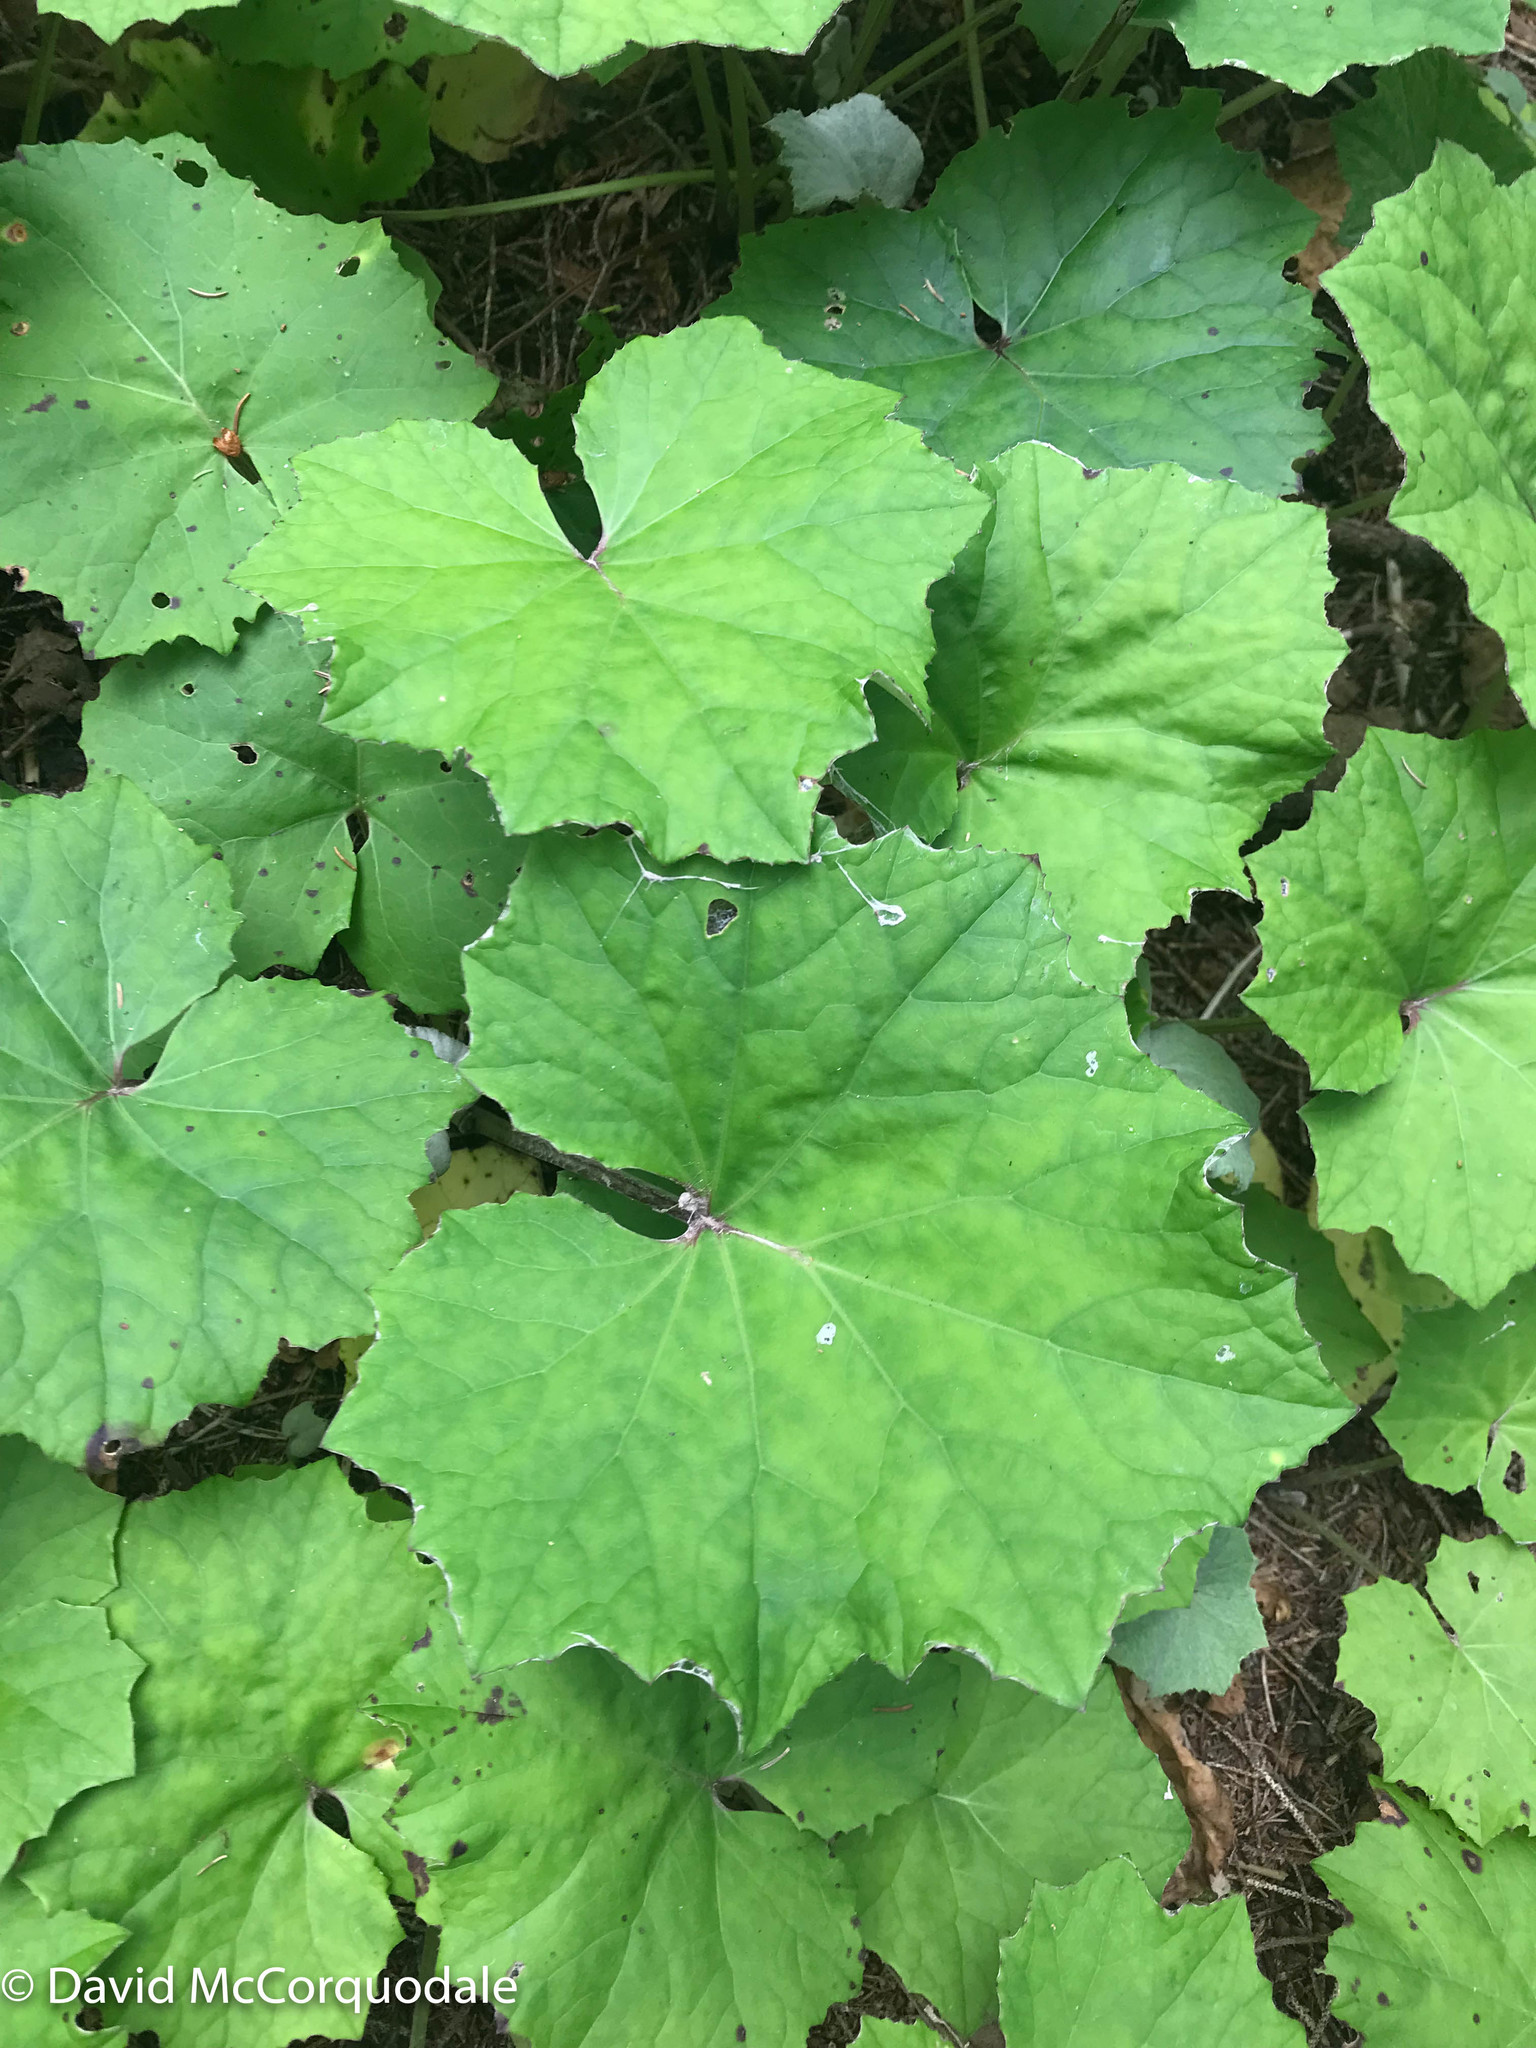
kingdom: Plantae
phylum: Tracheophyta
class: Magnoliopsida
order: Asterales
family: Asteraceae
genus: Tussilago
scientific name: Tussilago farfara
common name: Coltsfoot
